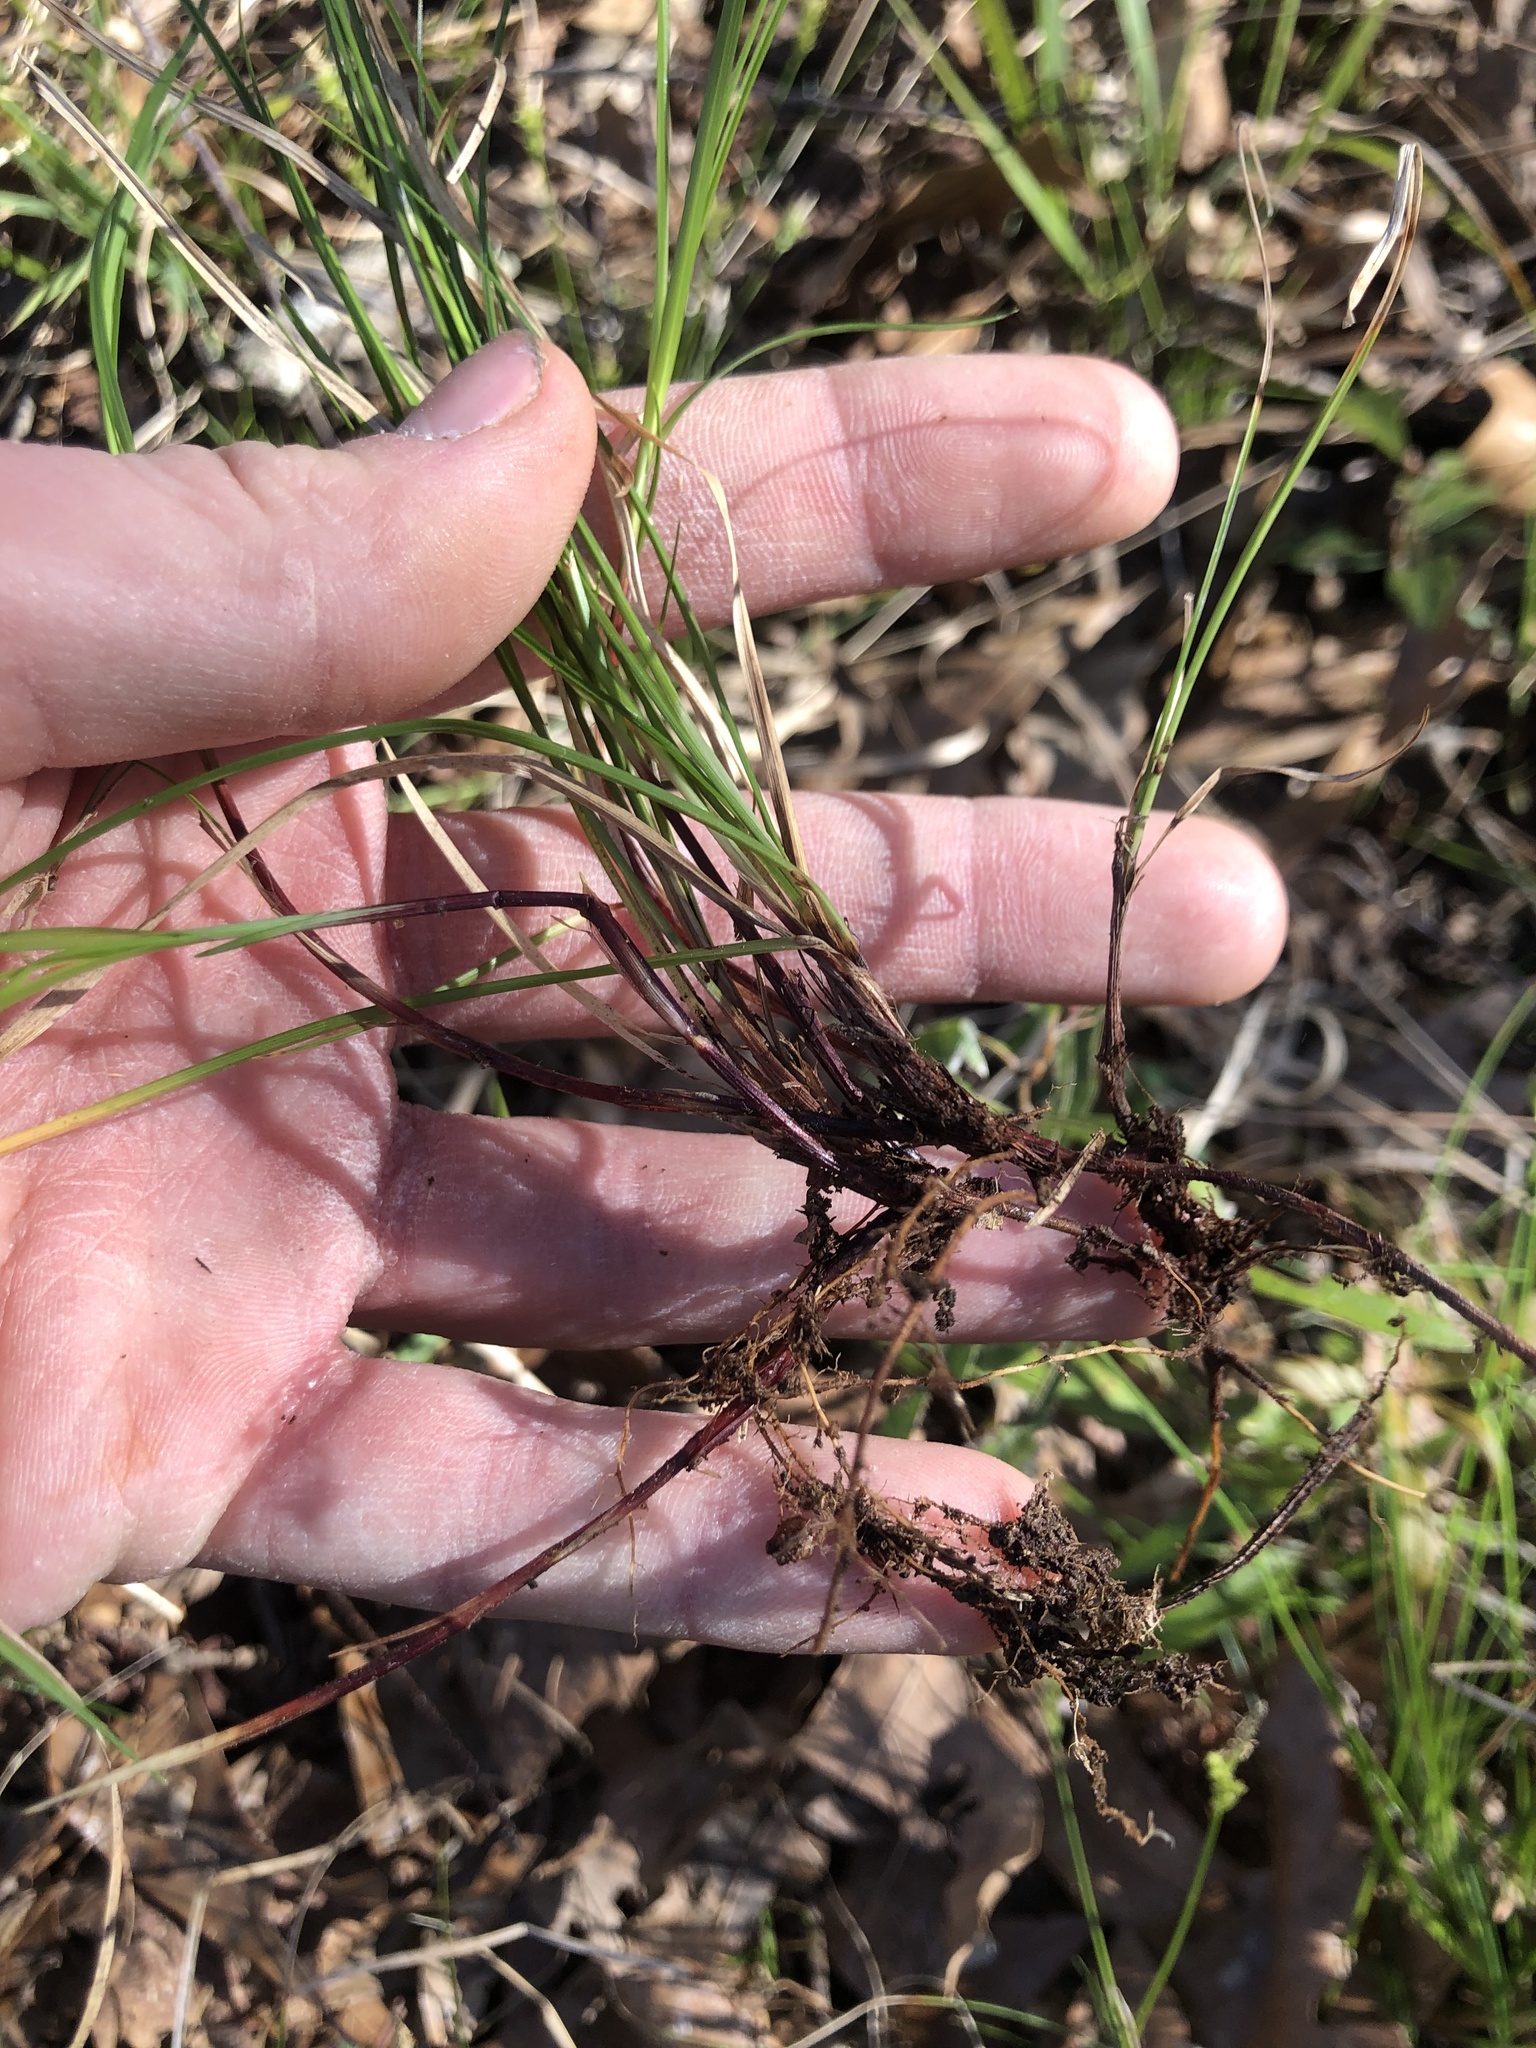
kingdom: Plantae
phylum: Tracheophyta
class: Liliopsida
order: Poales
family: Cyperaceae
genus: Carex
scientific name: Carex albicans
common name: Bellow-beaked sedge
